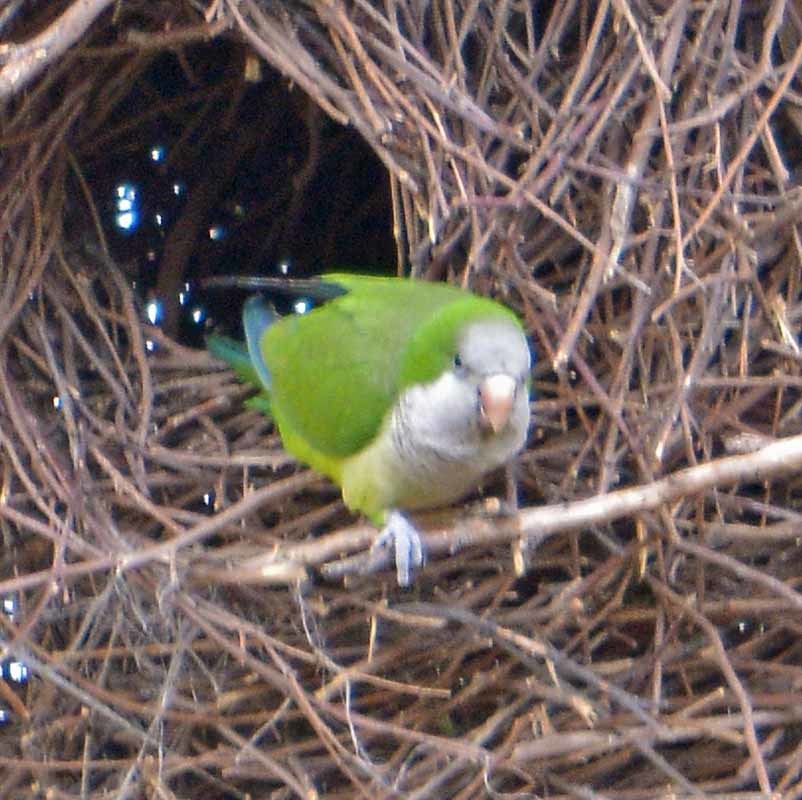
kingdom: Animalia
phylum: Chordata
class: Aves
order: Psittaciformes
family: Psittacidae
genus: Myiopsitta
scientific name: Myiopsitta monachus
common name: Monk parakeet
